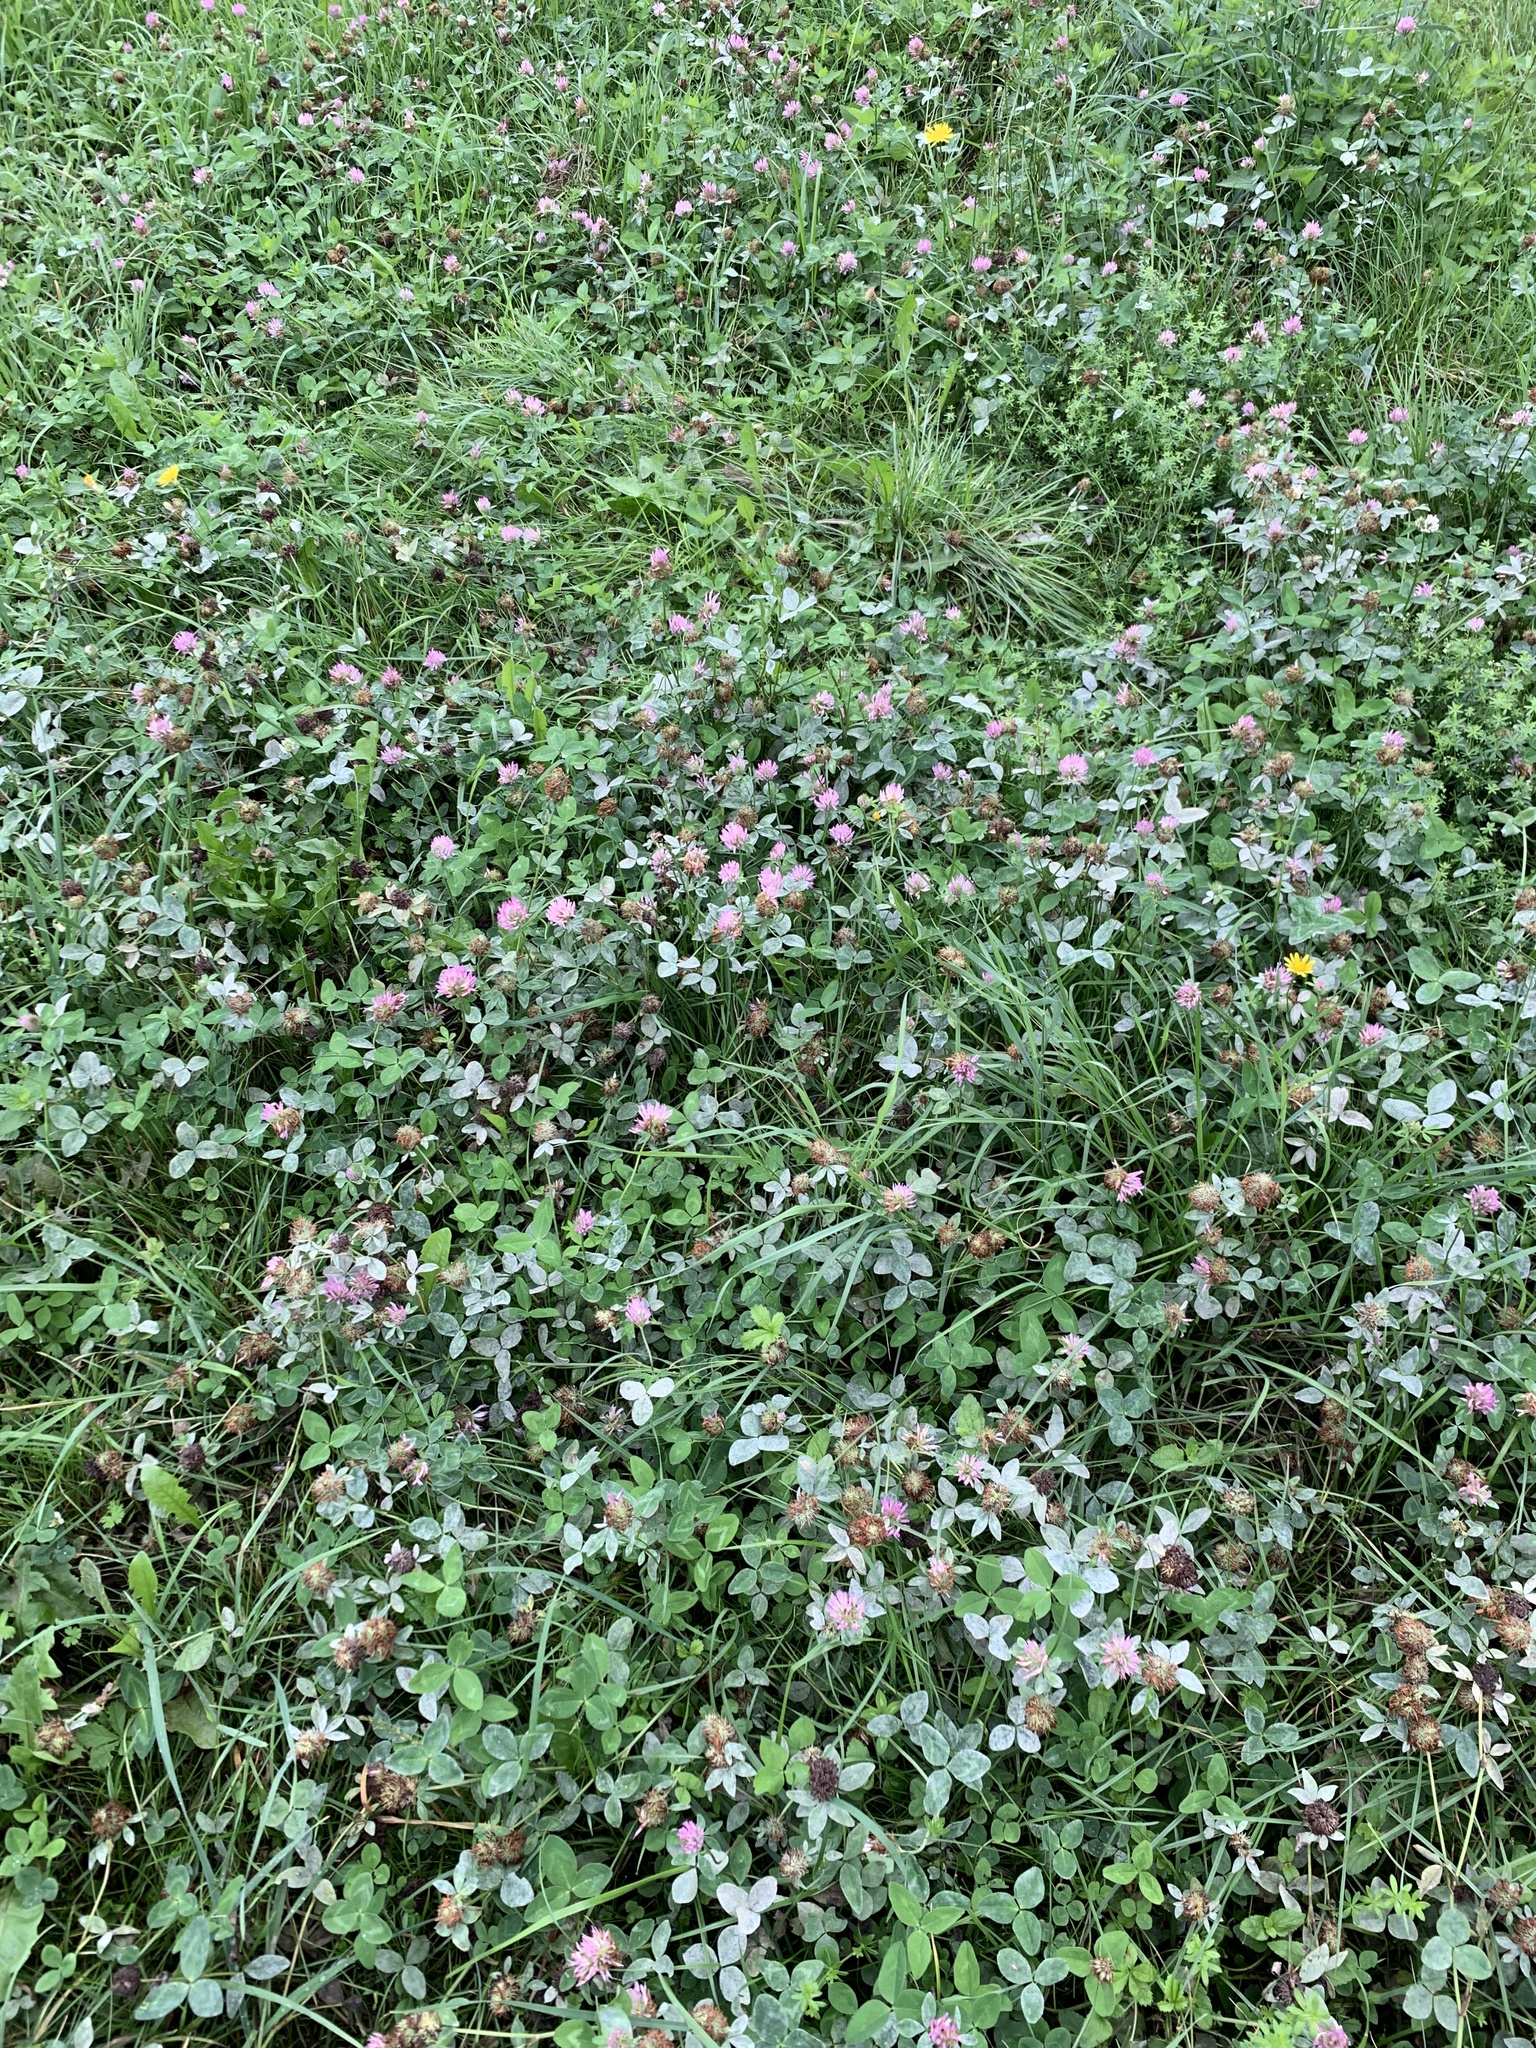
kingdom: Plantae
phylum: Tracheophyta
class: Magnoliopsida
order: Fabales
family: Fabaceae
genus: Trifolium
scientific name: Trifolium pratense
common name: Red clover
